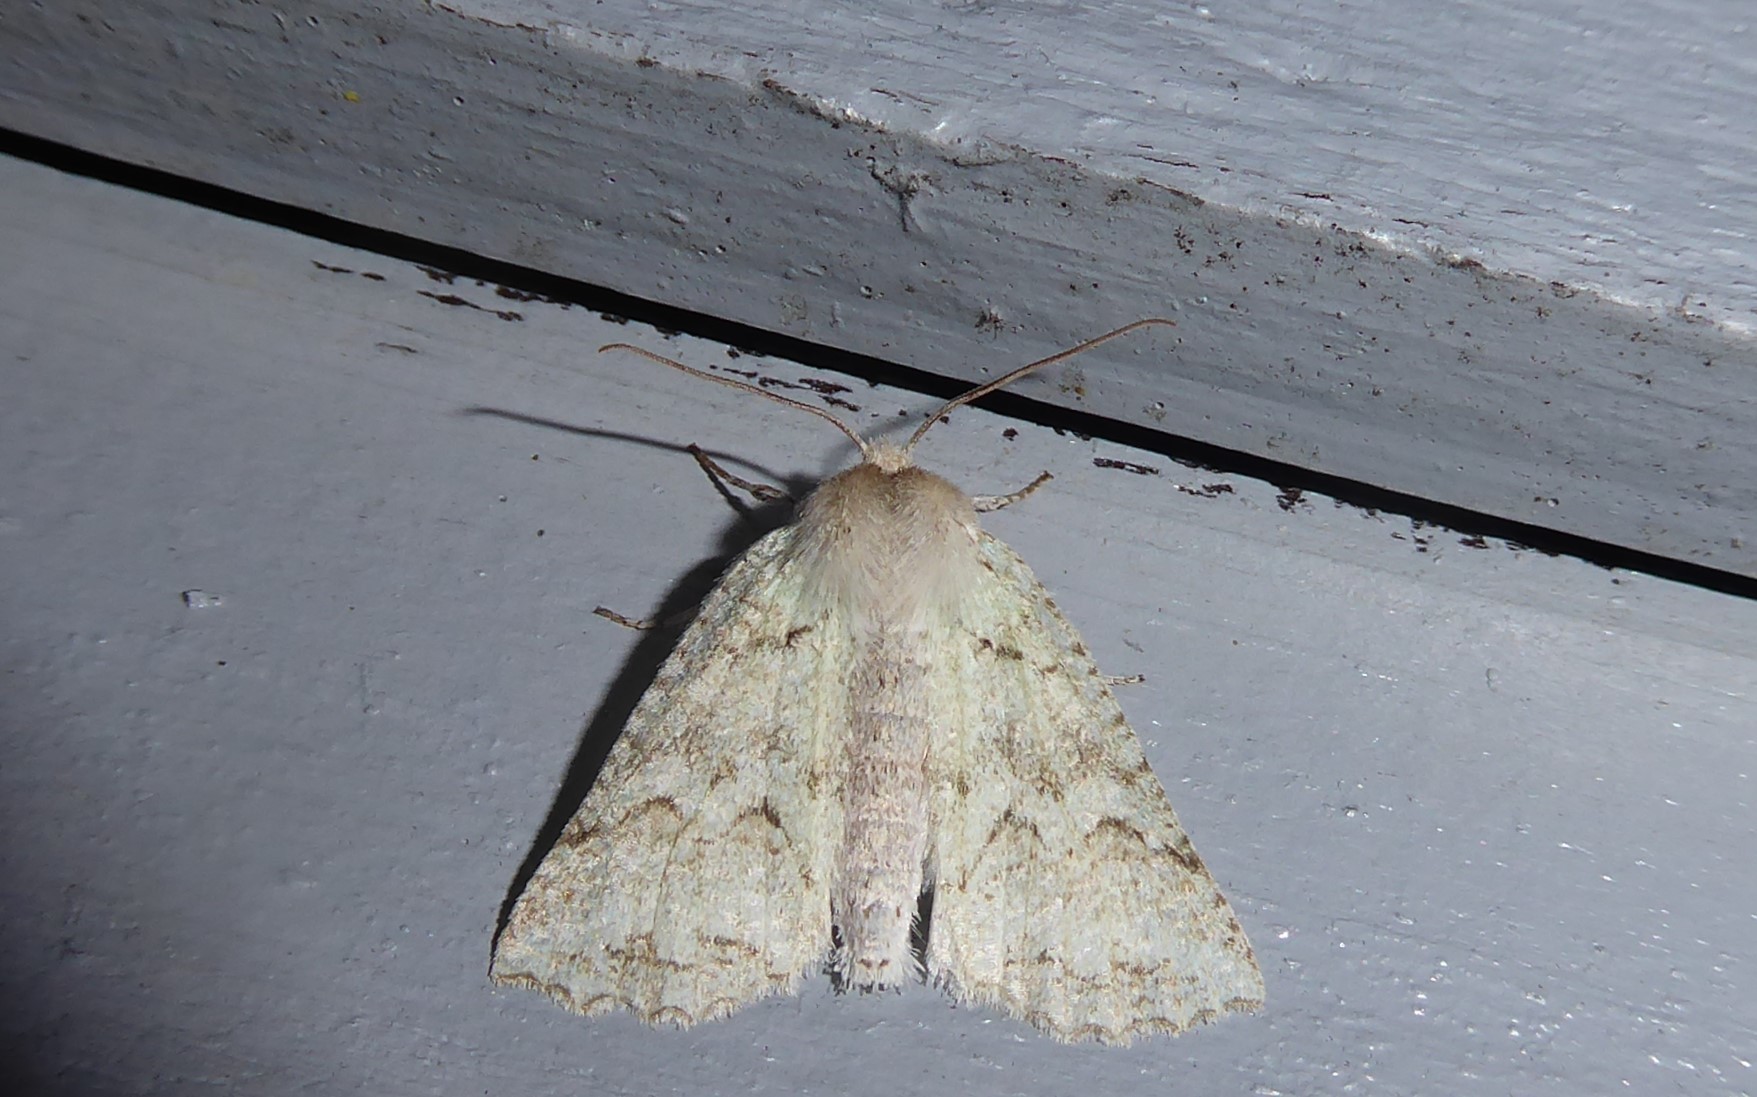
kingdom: Animalia
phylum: Arthropoda
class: Insecta
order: Lepidoptera
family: Geometridae
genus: Declana
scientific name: Declana niveata
